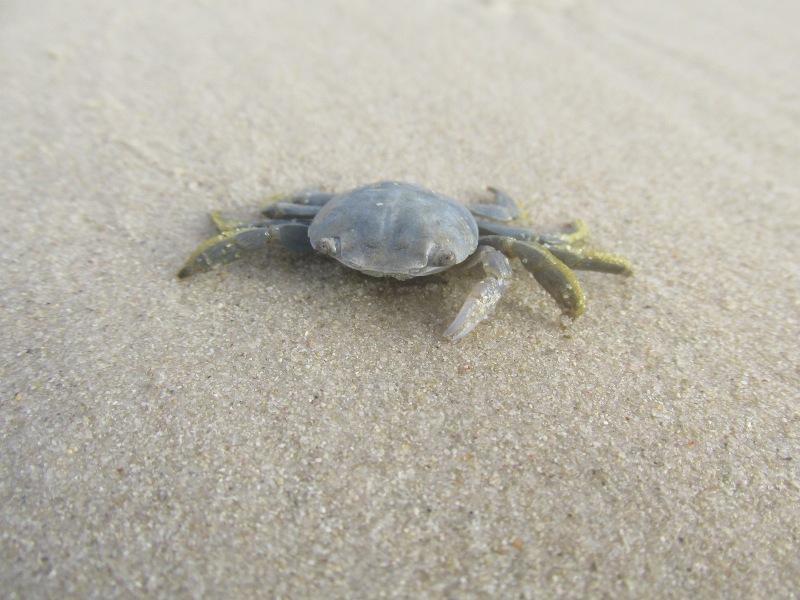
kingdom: Animalia
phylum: Arthropoda
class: Malacostraca
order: Decapoda
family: Grapsidae
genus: Planes
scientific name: Planes minutus
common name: Gulf weed crab
